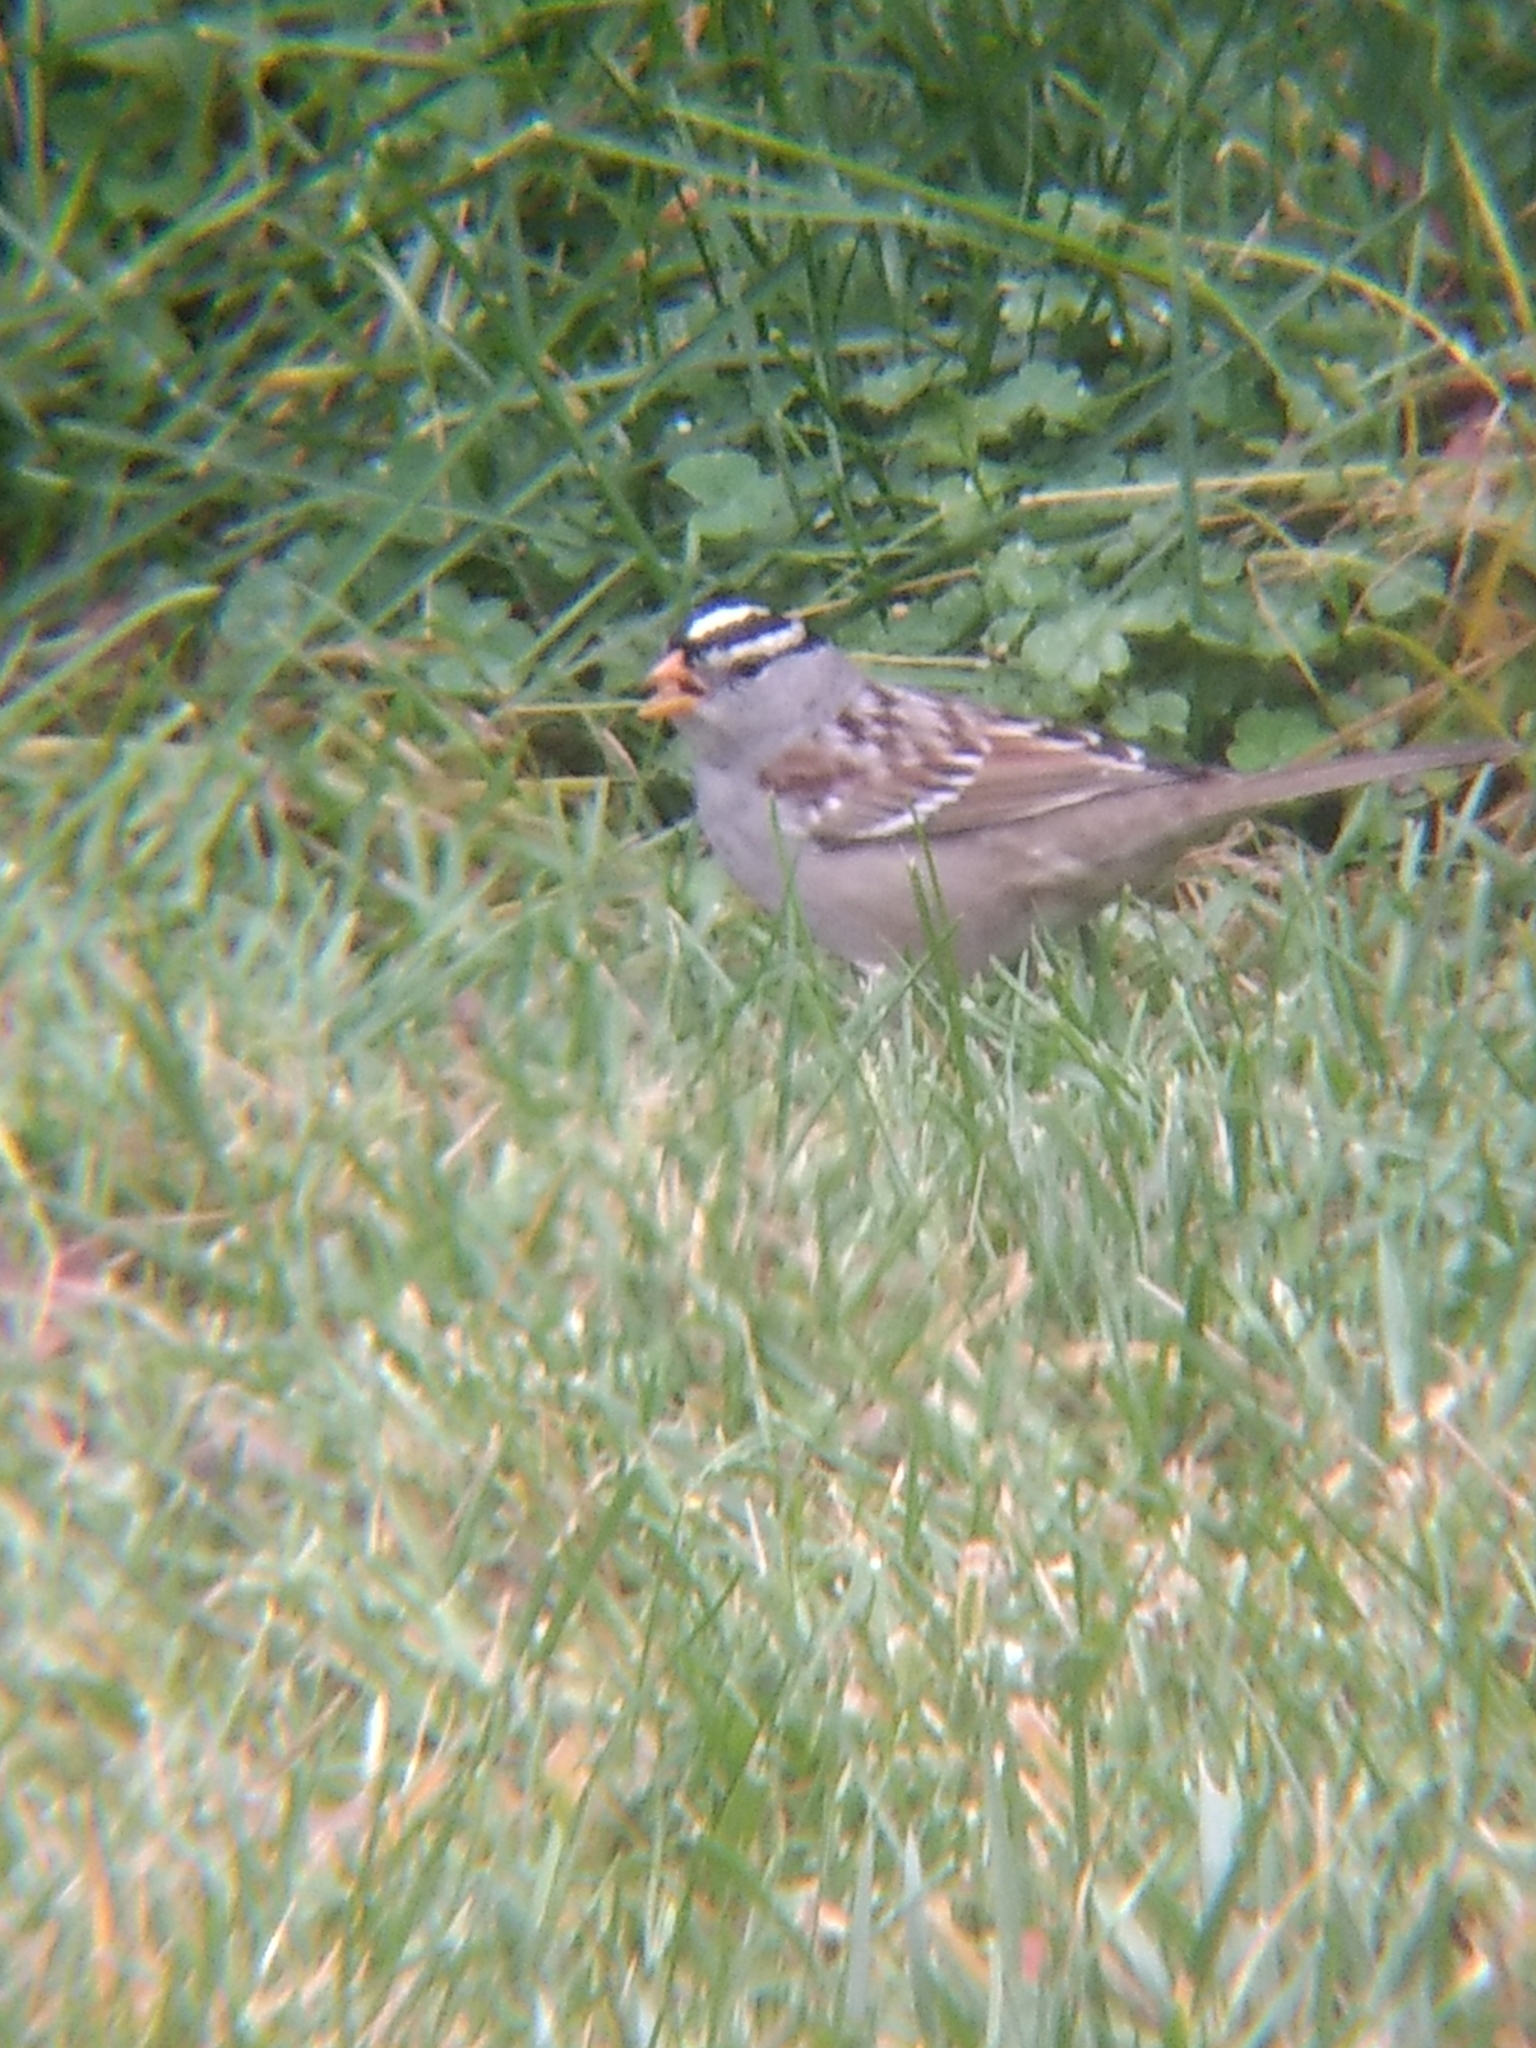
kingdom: Animalia
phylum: Chordata
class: Aves
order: Passeriformes
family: Passerellidae
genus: Zonotrichia
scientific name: Zonotrichia leucophrys
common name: White-crowned sparrow
